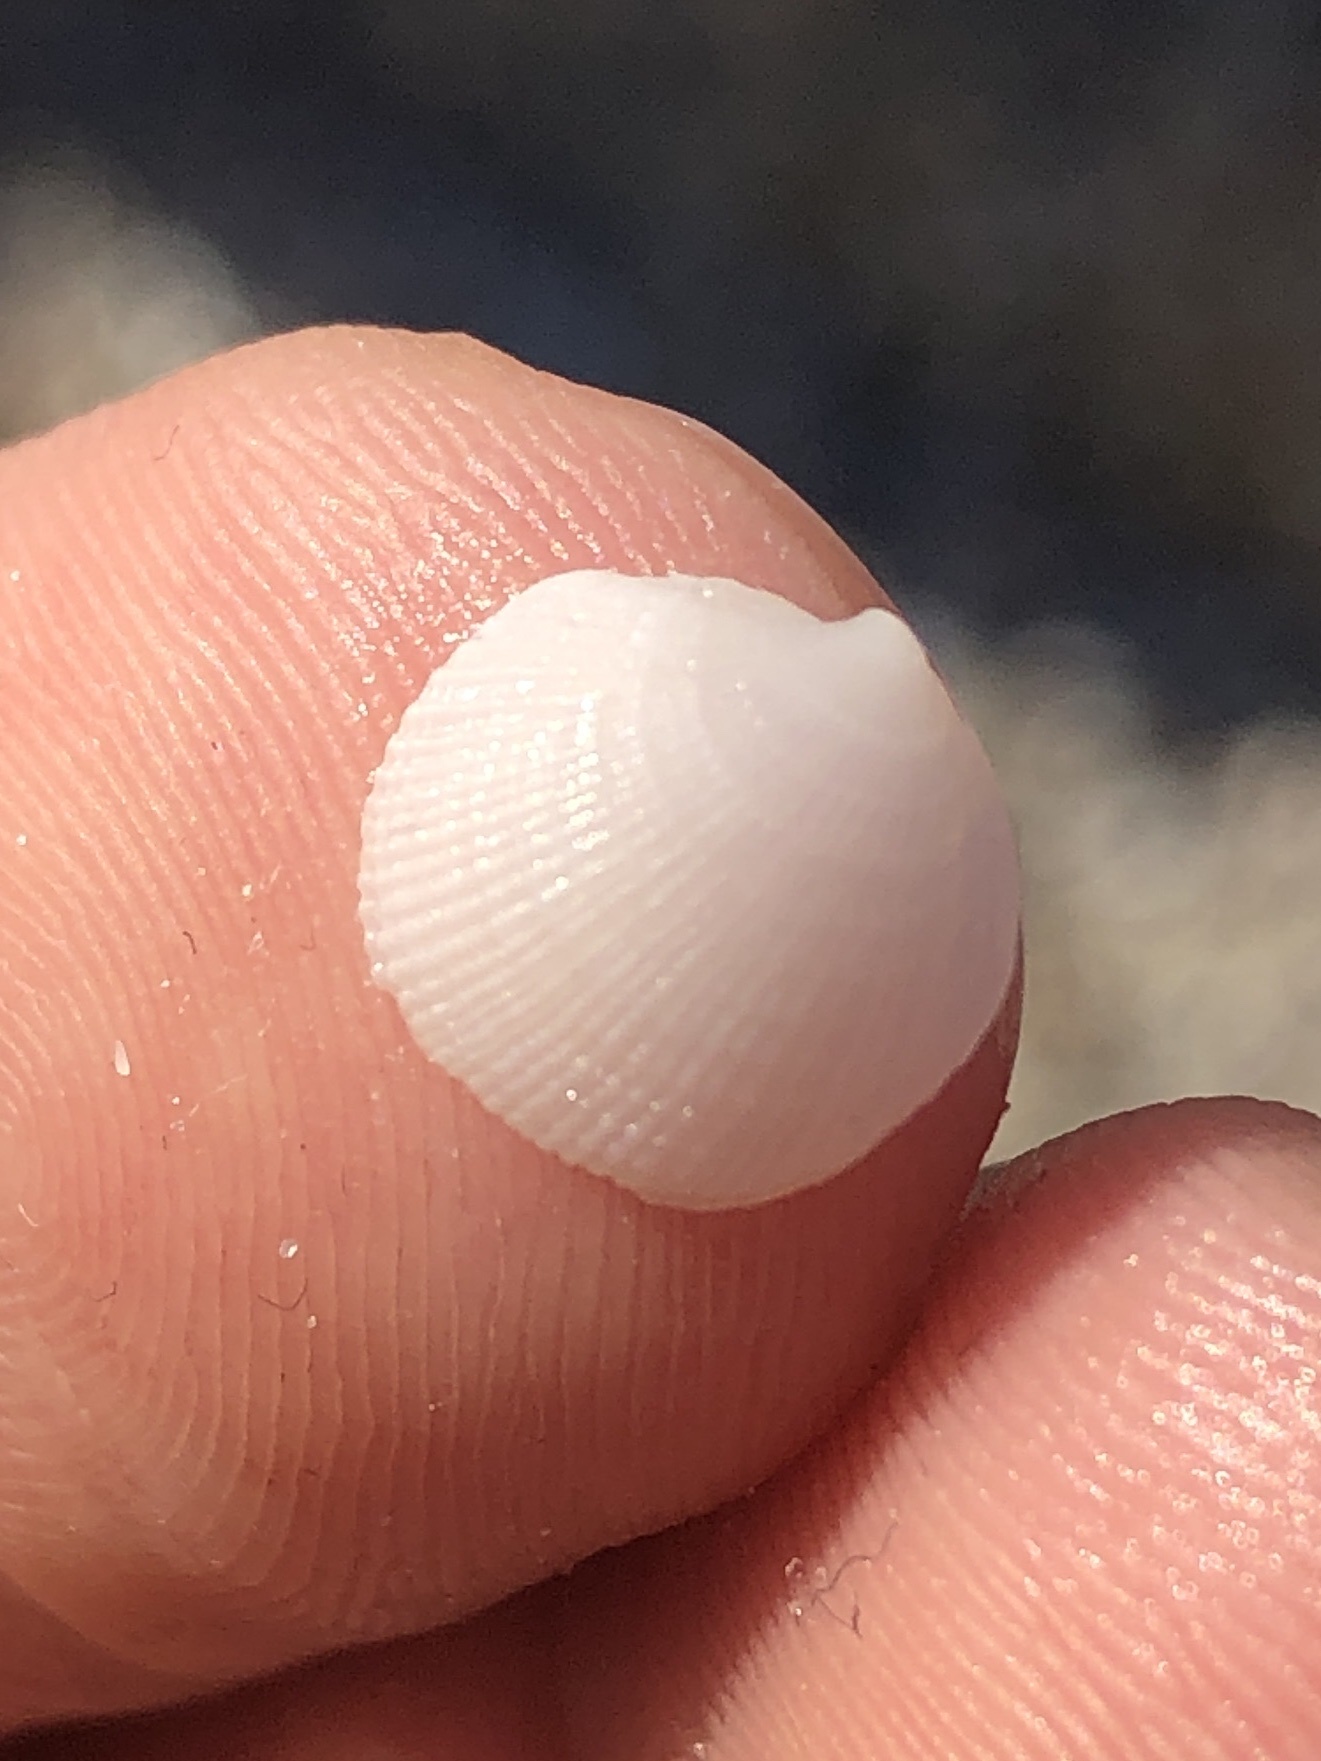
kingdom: Animalia
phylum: Mollusca
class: Bivalvia
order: Lucinida
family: Lucinidae
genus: Lucinisca
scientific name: Lucinisca nassula
